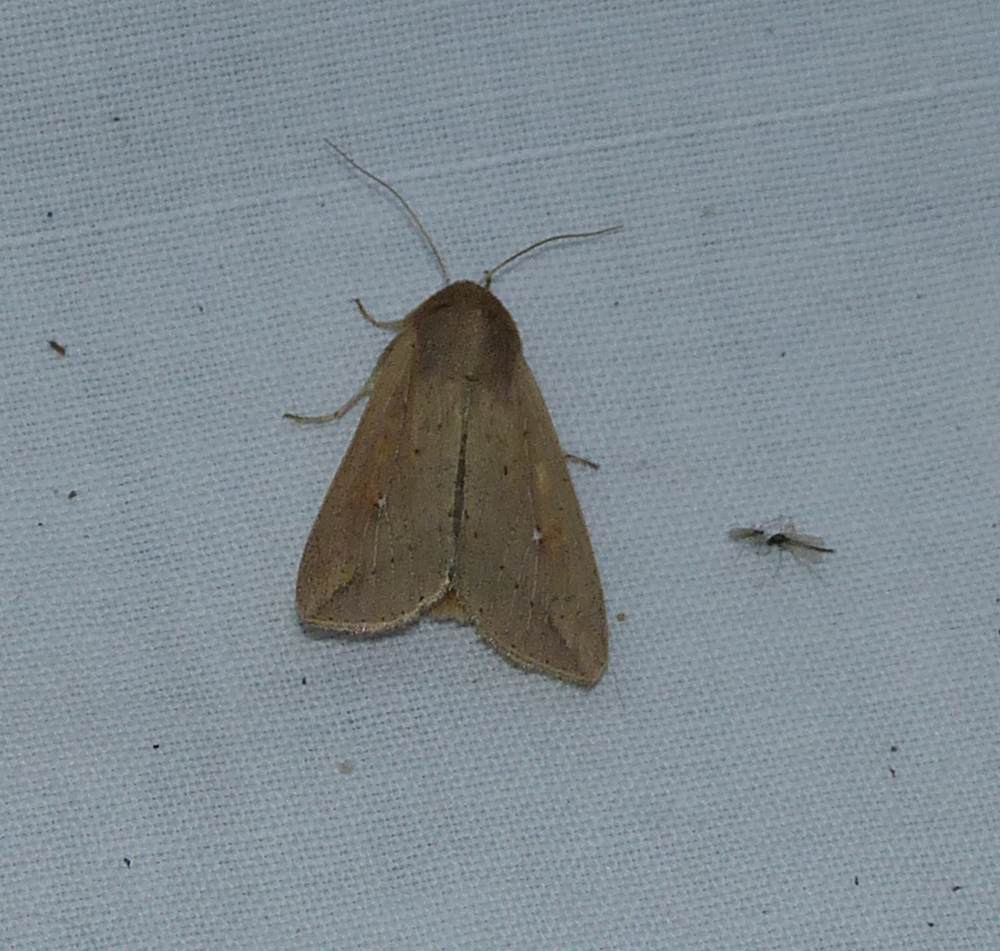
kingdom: Animalia
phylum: Arthropoda
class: Insecta
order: Lepidoptera
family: Noctuidae
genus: Mythimna
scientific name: Mythimna unipuncta
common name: White-speck
